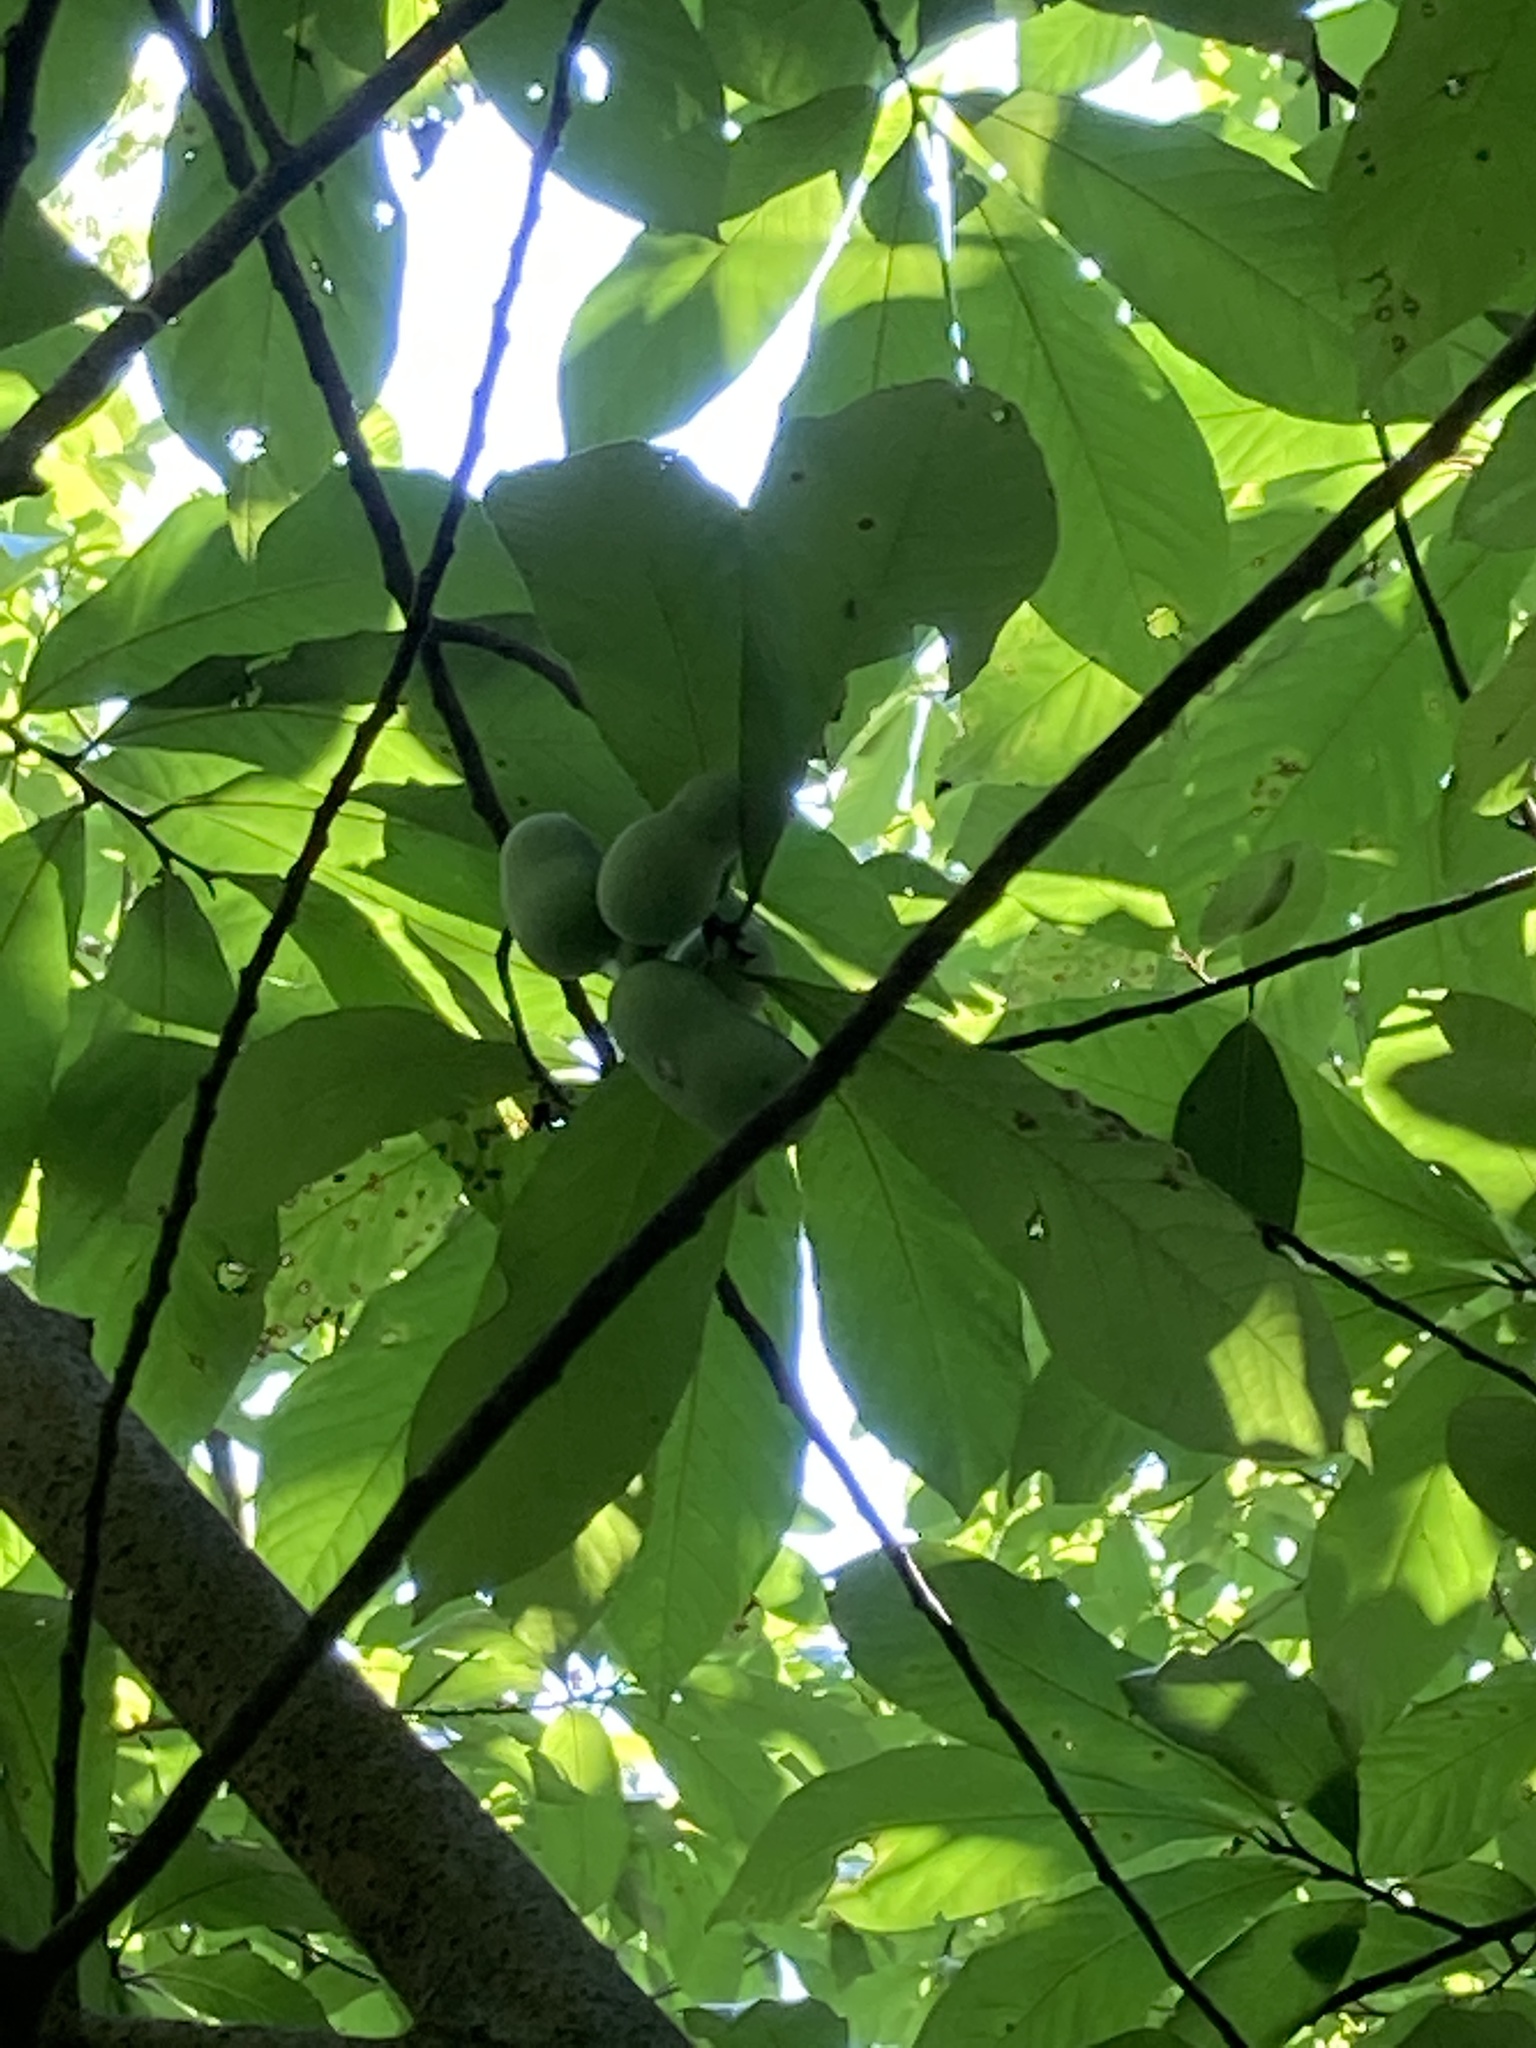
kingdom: Plantae
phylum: Tracheophyta
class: Magnoliopsida
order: Magnoliales
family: Annonaceae
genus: Asimina
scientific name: Asimina triloba
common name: Dog-banana
